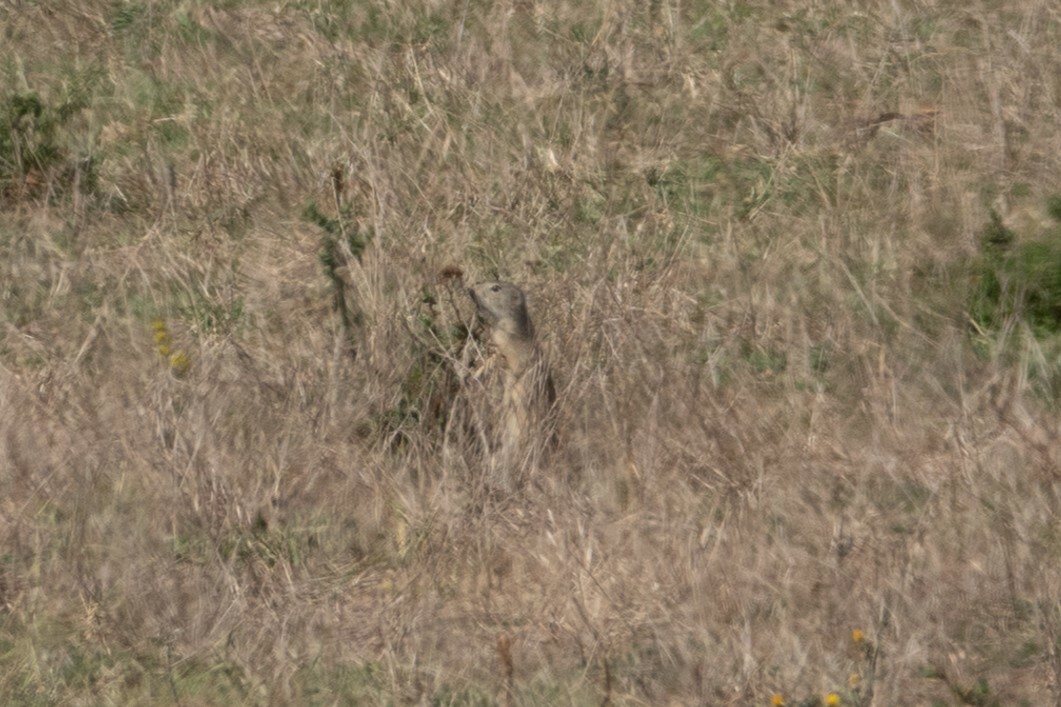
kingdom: Animalia
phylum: Chordata
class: Mammalia
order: Rodentia
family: Sciuridae
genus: Spermophilus
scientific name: Spermophilus citellus
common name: European ground squirrel
